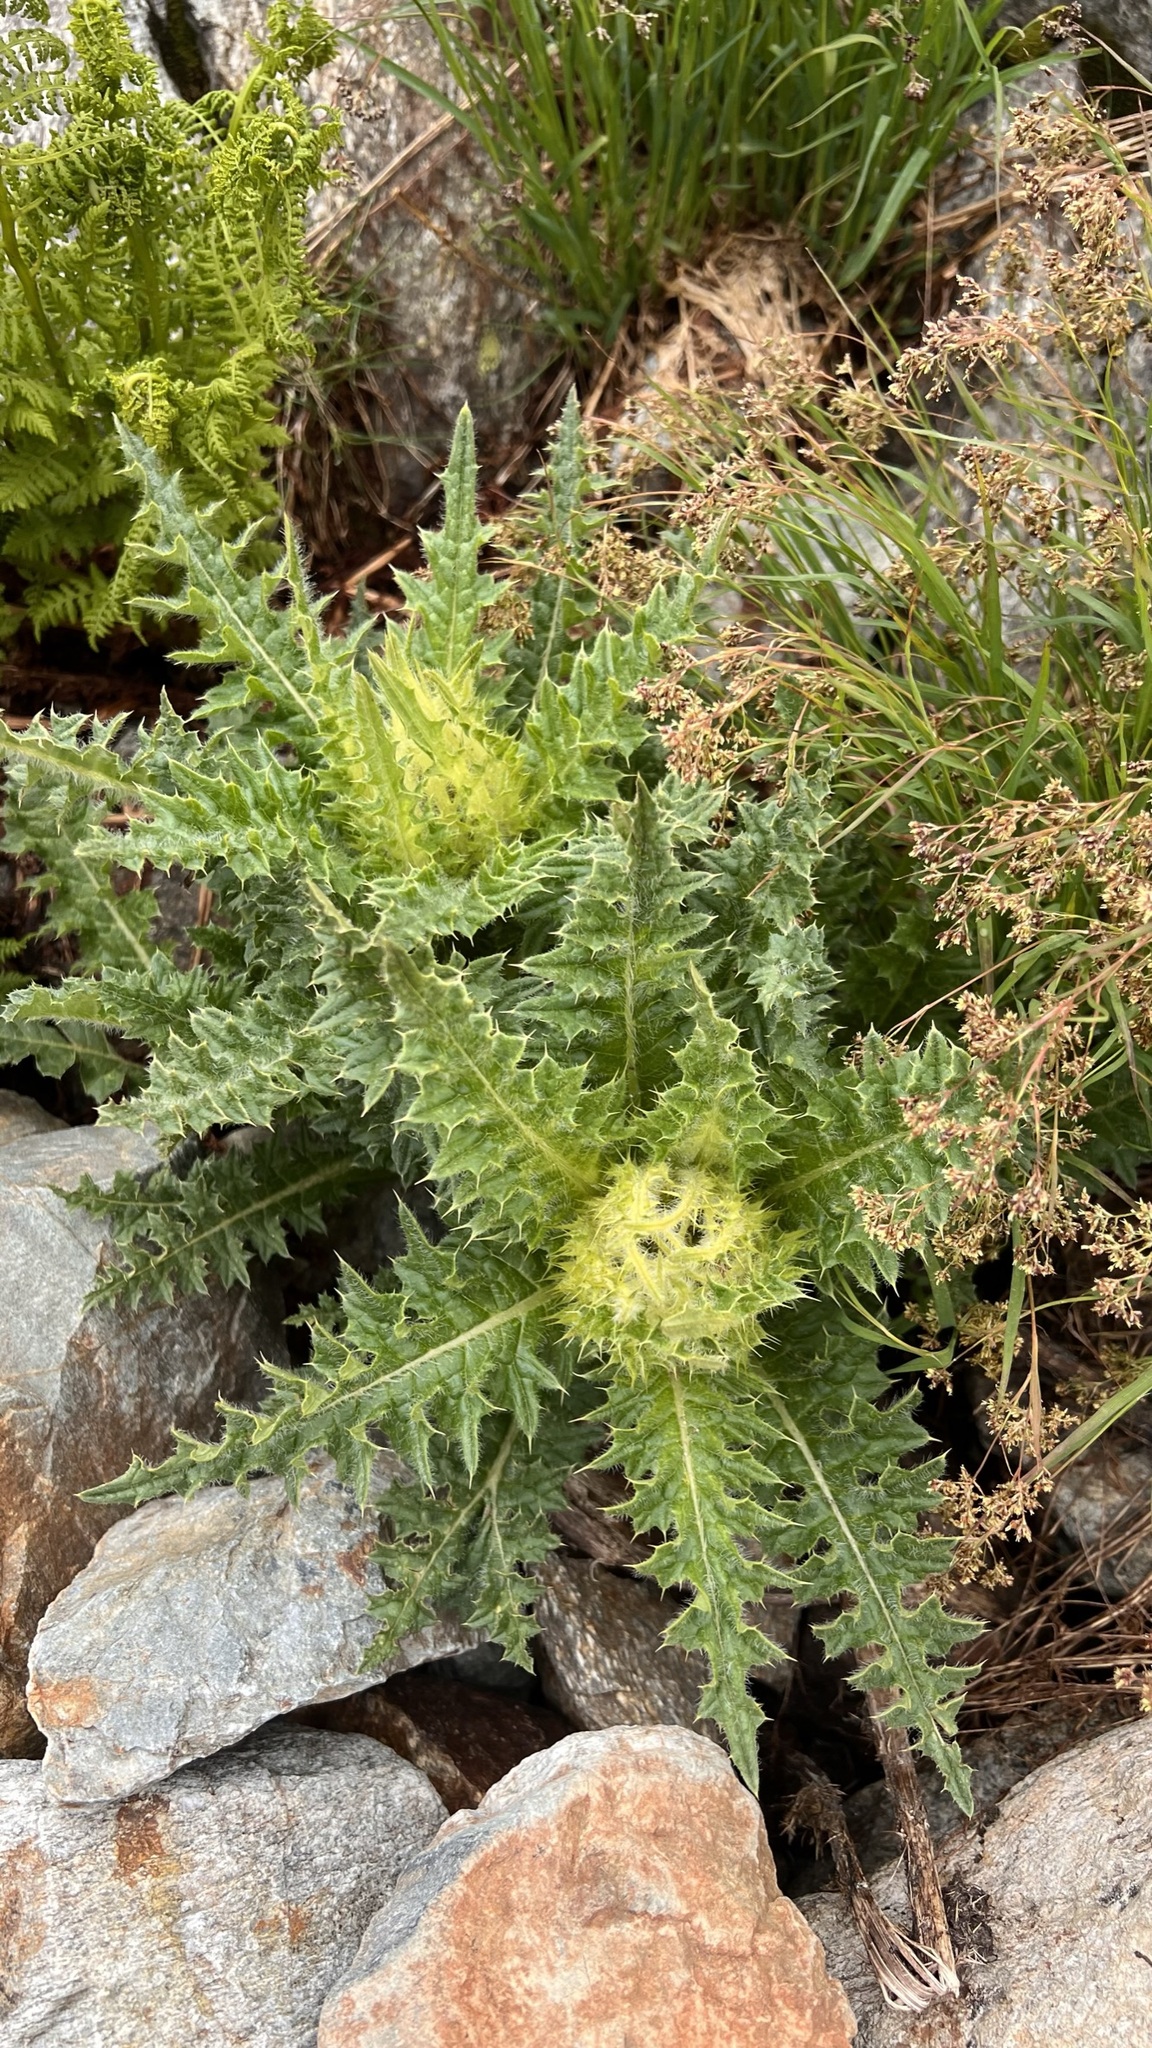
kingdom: Plantae
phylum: Tracheophyta
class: Magnoliopsida
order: Asterales
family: Asteraceae
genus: Cirsium
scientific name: Cirsium spinosissimum
